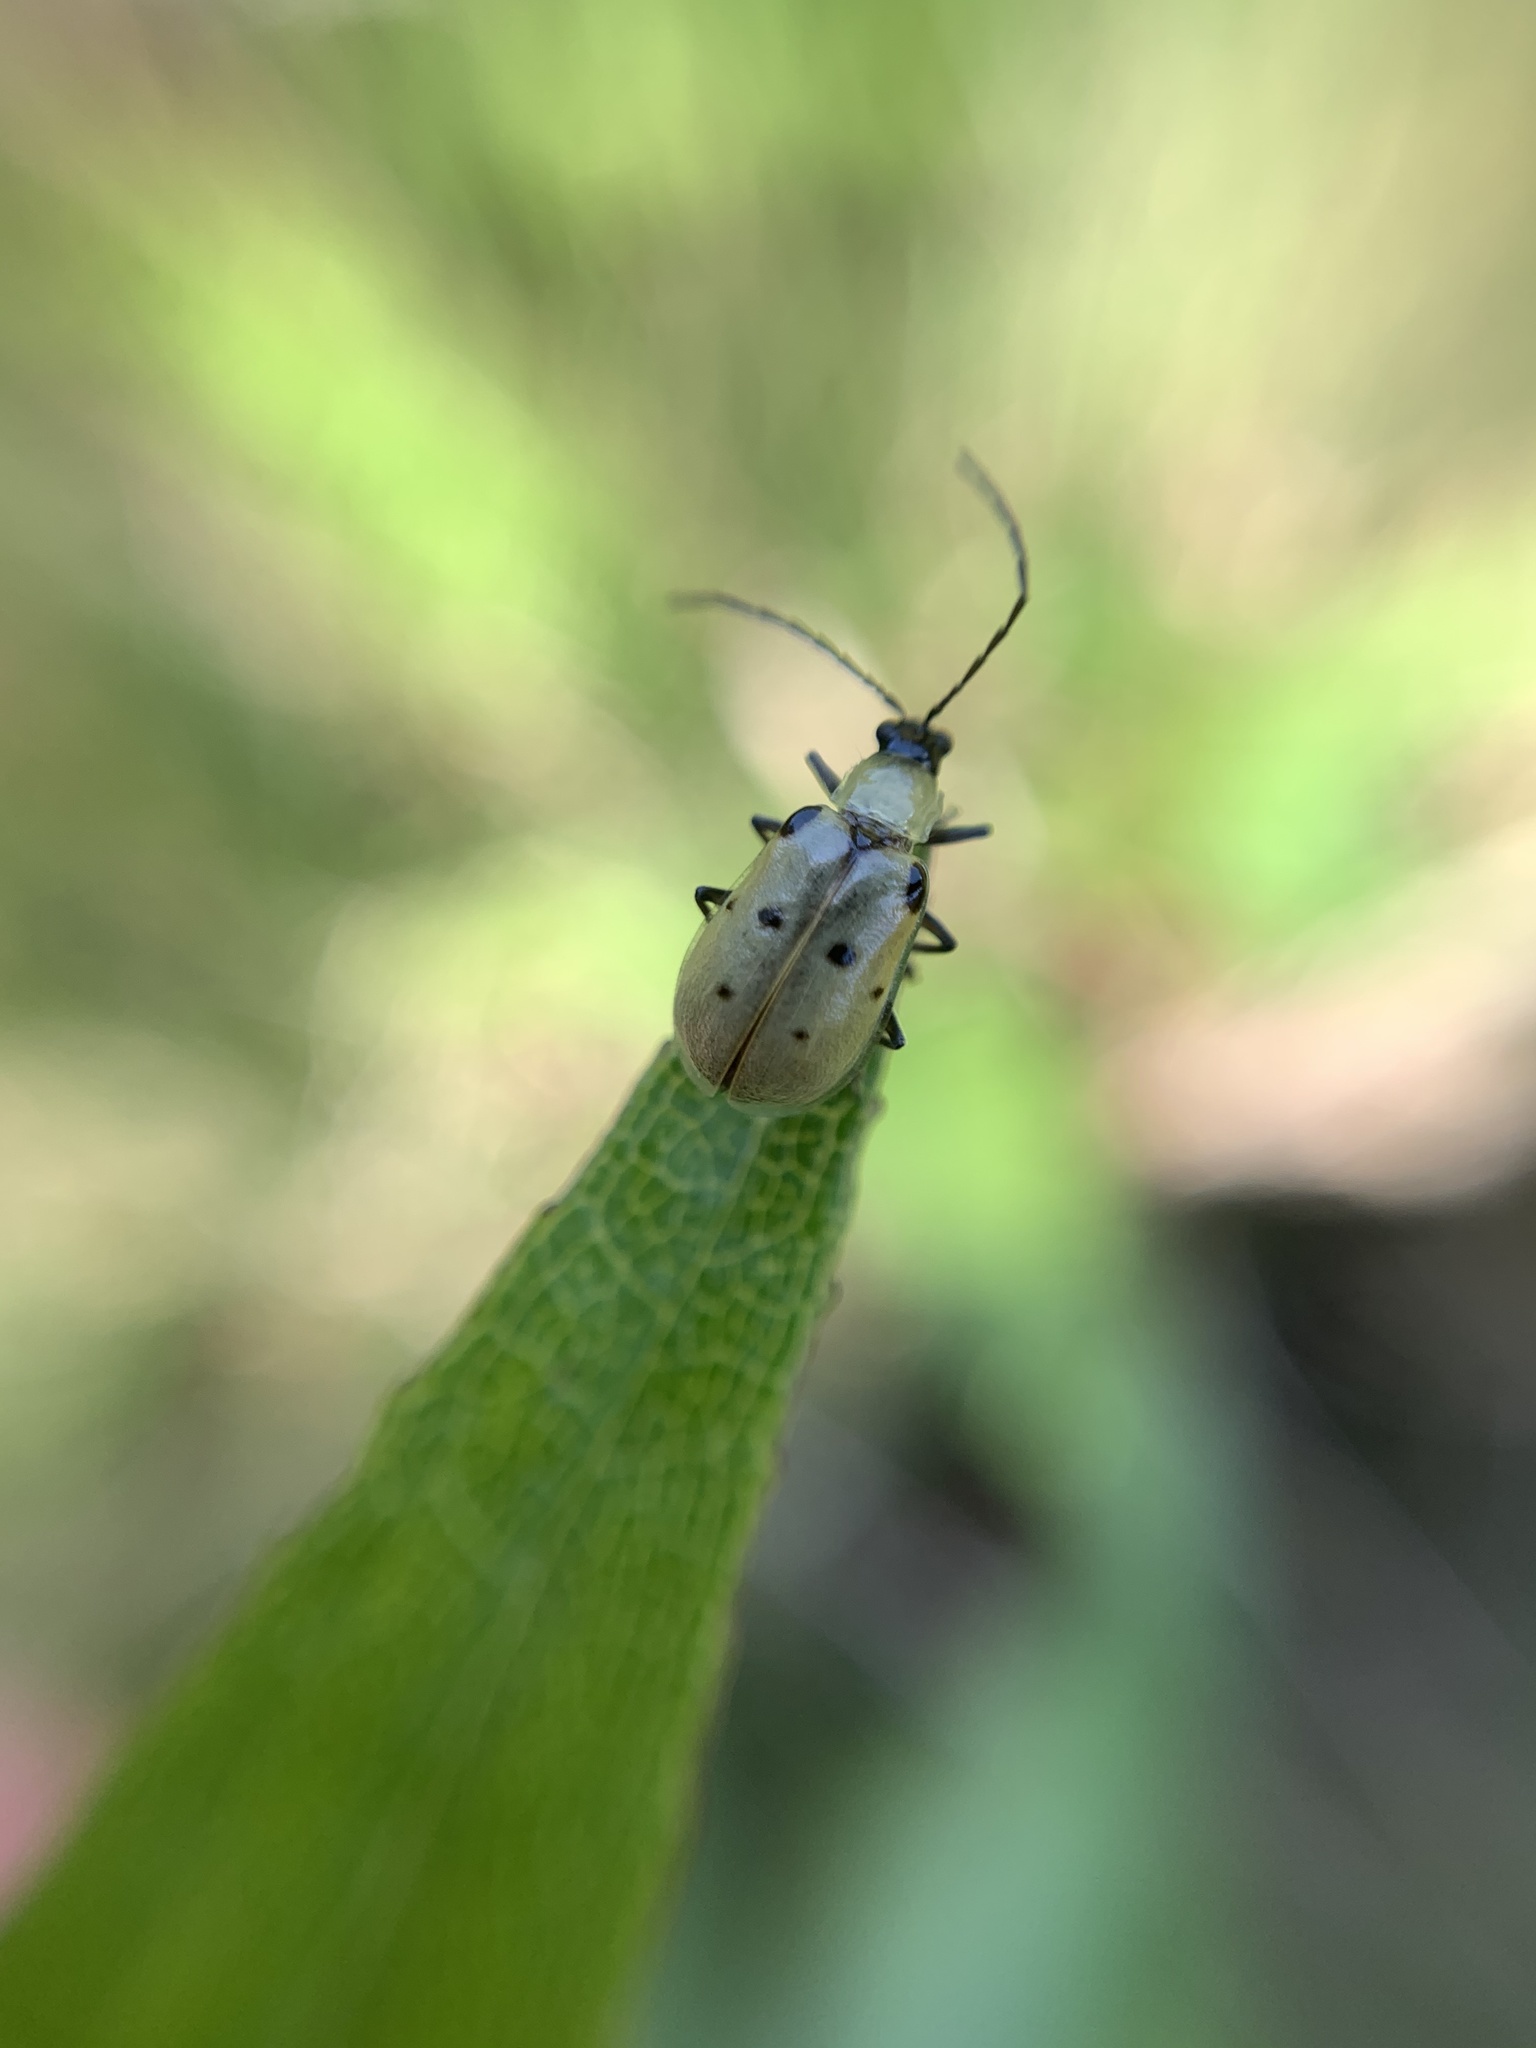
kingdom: Animalia
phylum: Arthropoda
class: Insecta
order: Coleoptera
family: Chrysomelidae
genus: Diabrotica
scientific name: Diabrotica decempunctata
